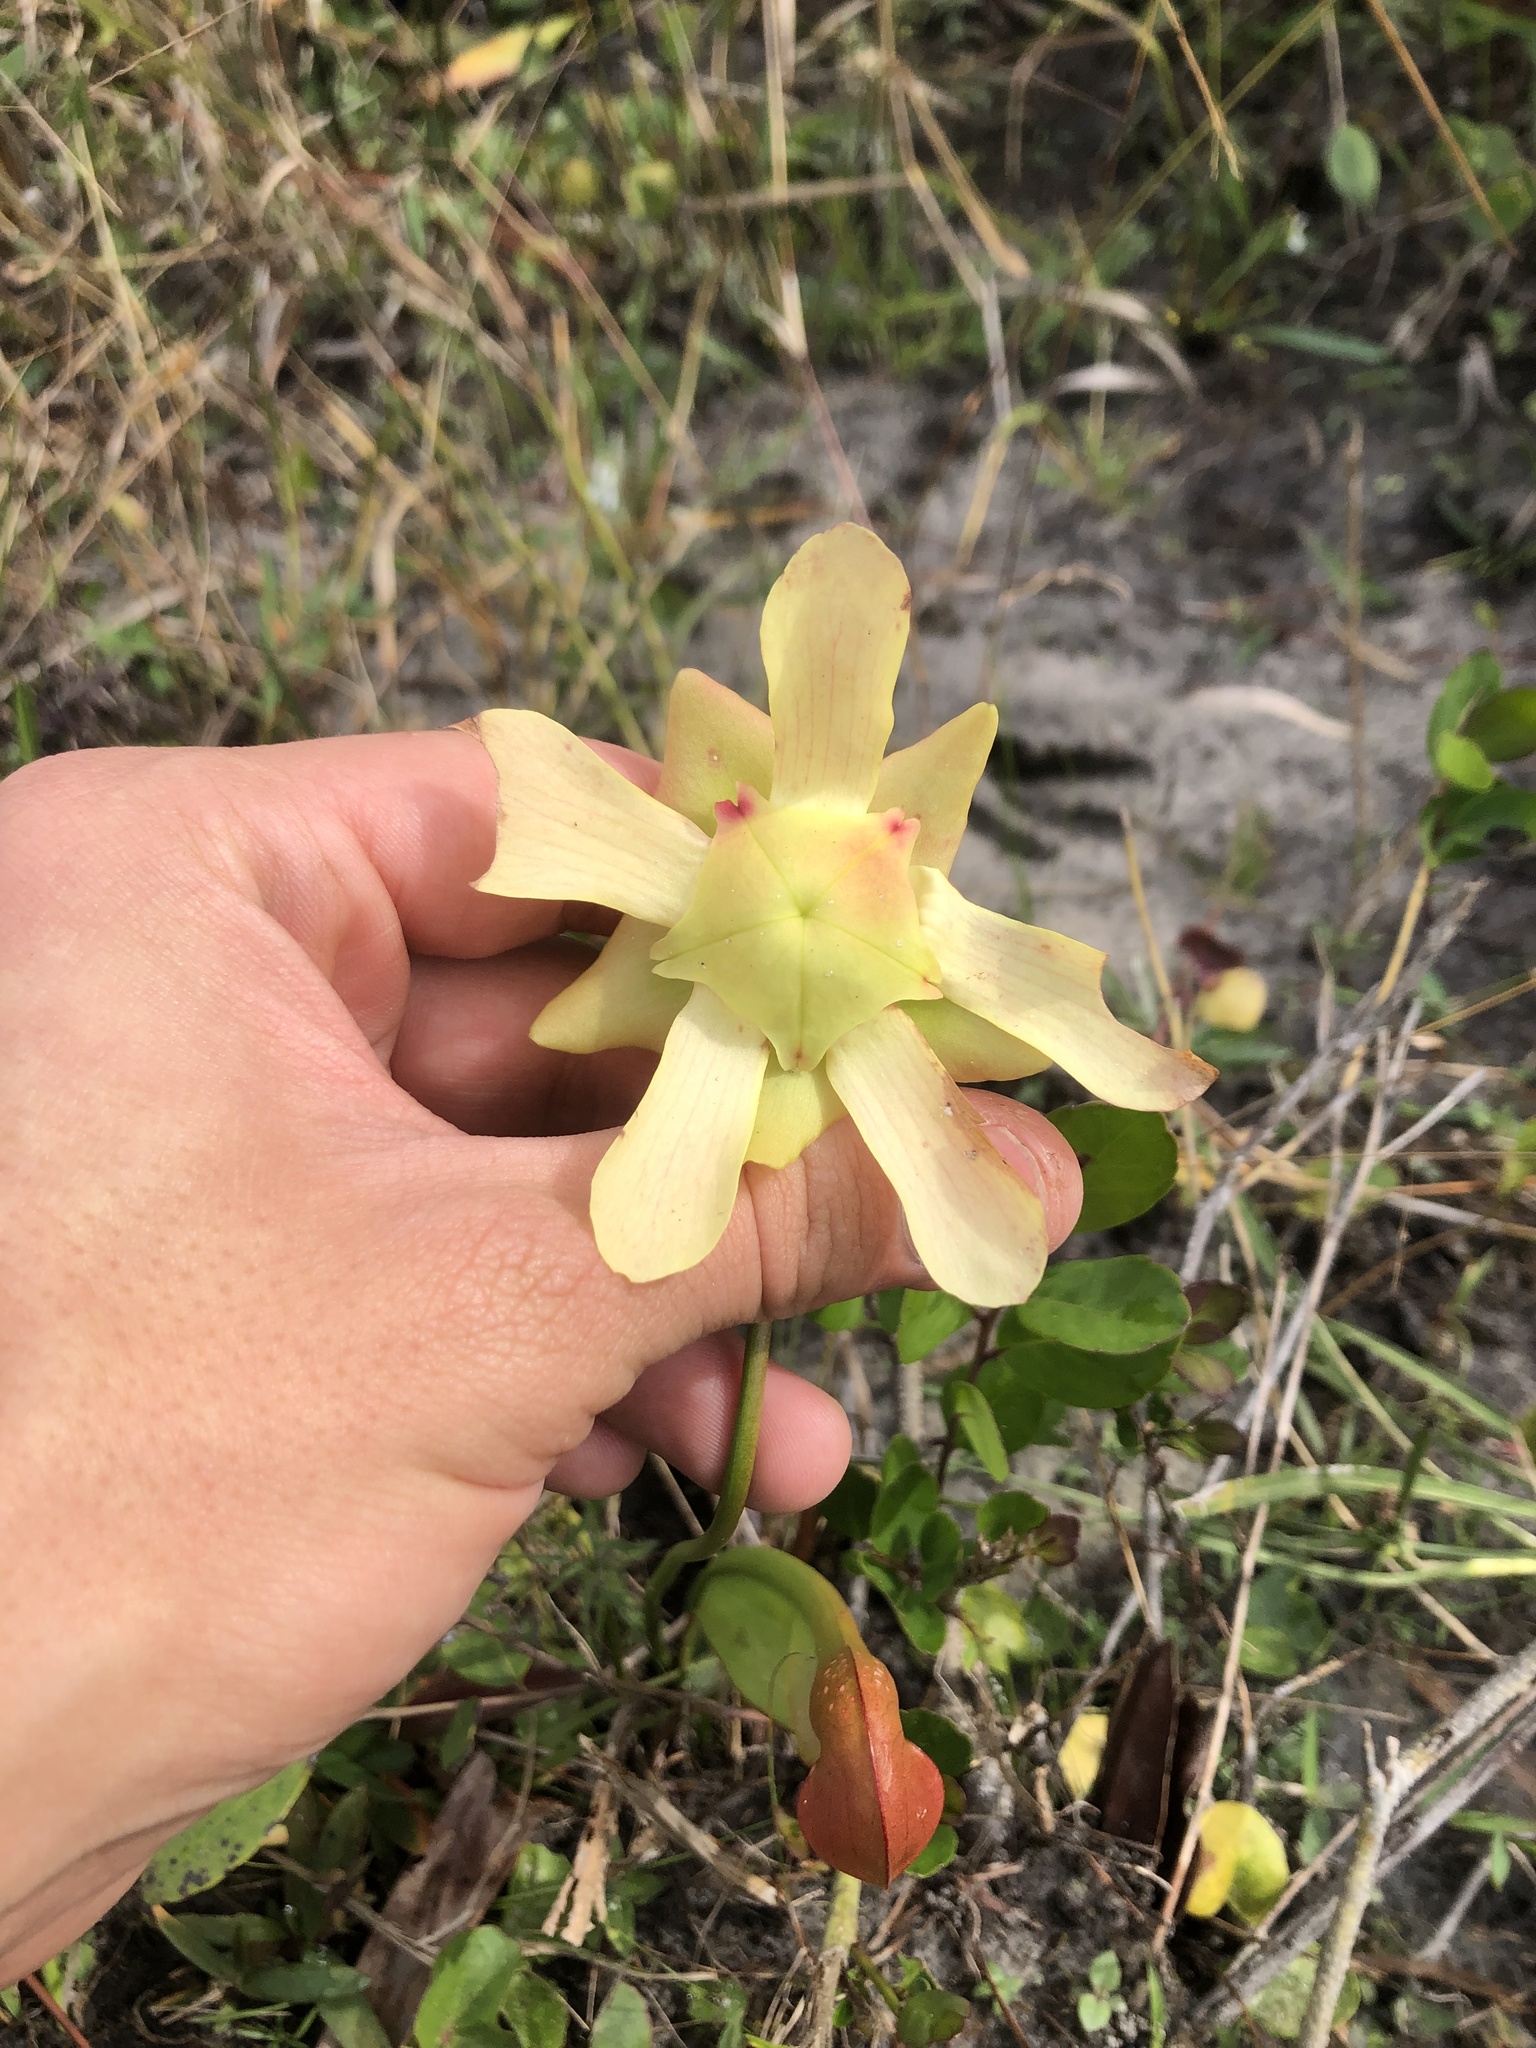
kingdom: Plantae
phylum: Tracheophyta
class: Magnoliopsida
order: Ericales
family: Sarraceniaceae
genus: Sarracenia
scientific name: Sarracenia minor
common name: Rainhat-trumpet
